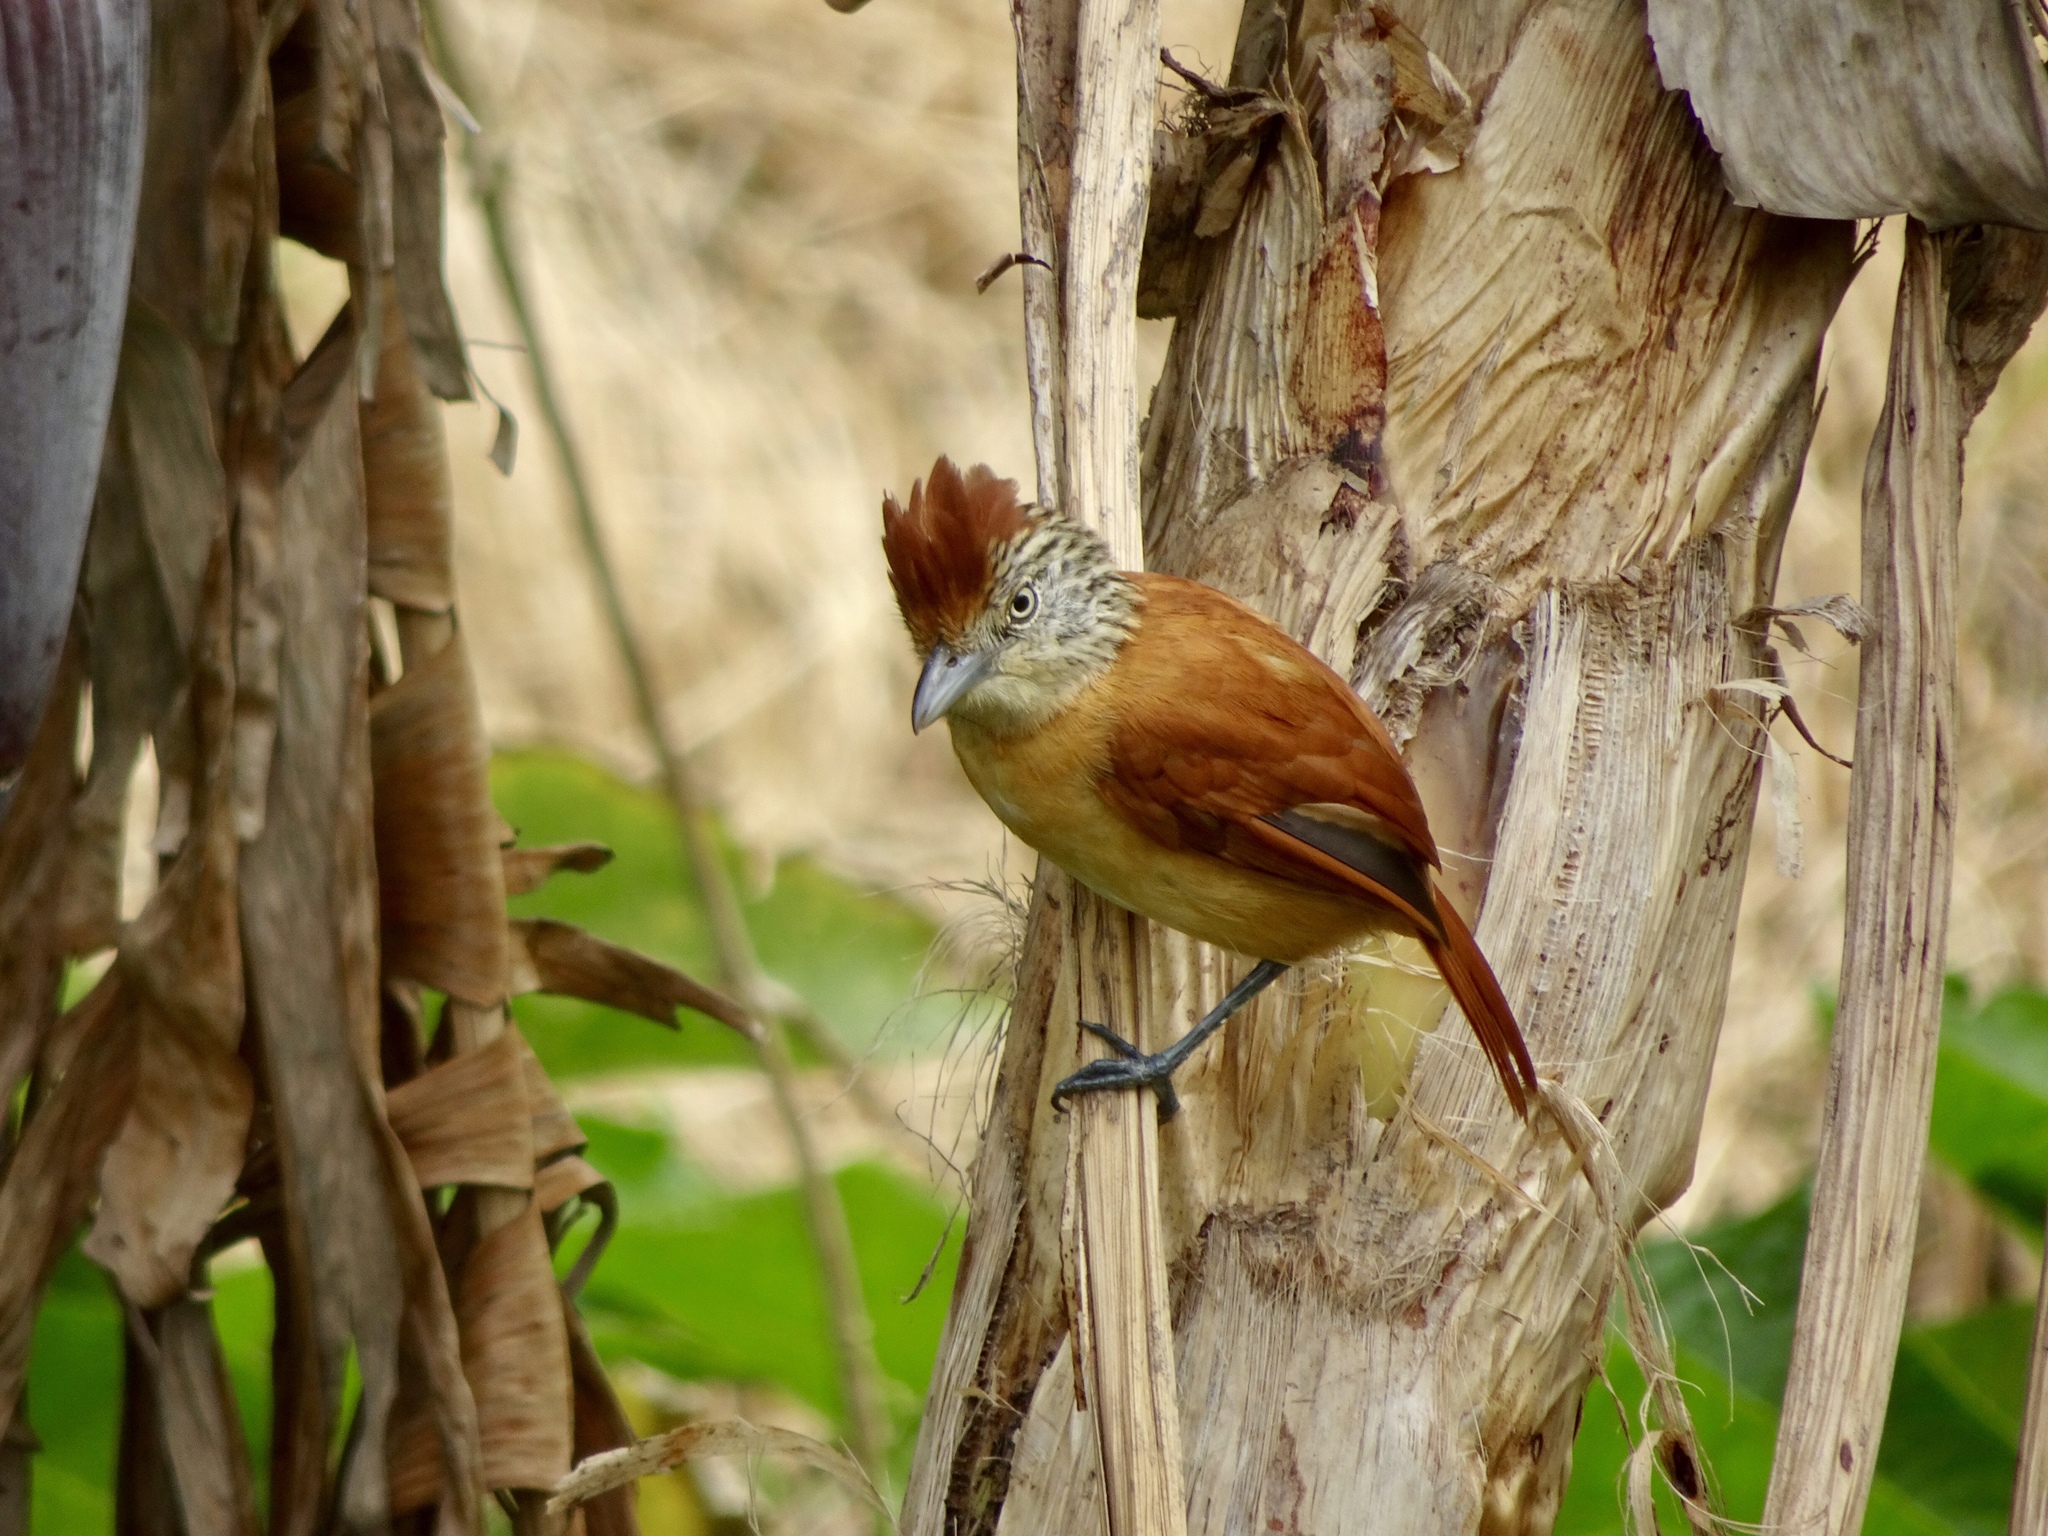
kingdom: Animalia
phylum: Chordata
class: Aves
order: Passeriformes
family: Thamnophilidae
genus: Thamnophilus
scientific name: Thamnophilus doliatus
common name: Barred antshrike
